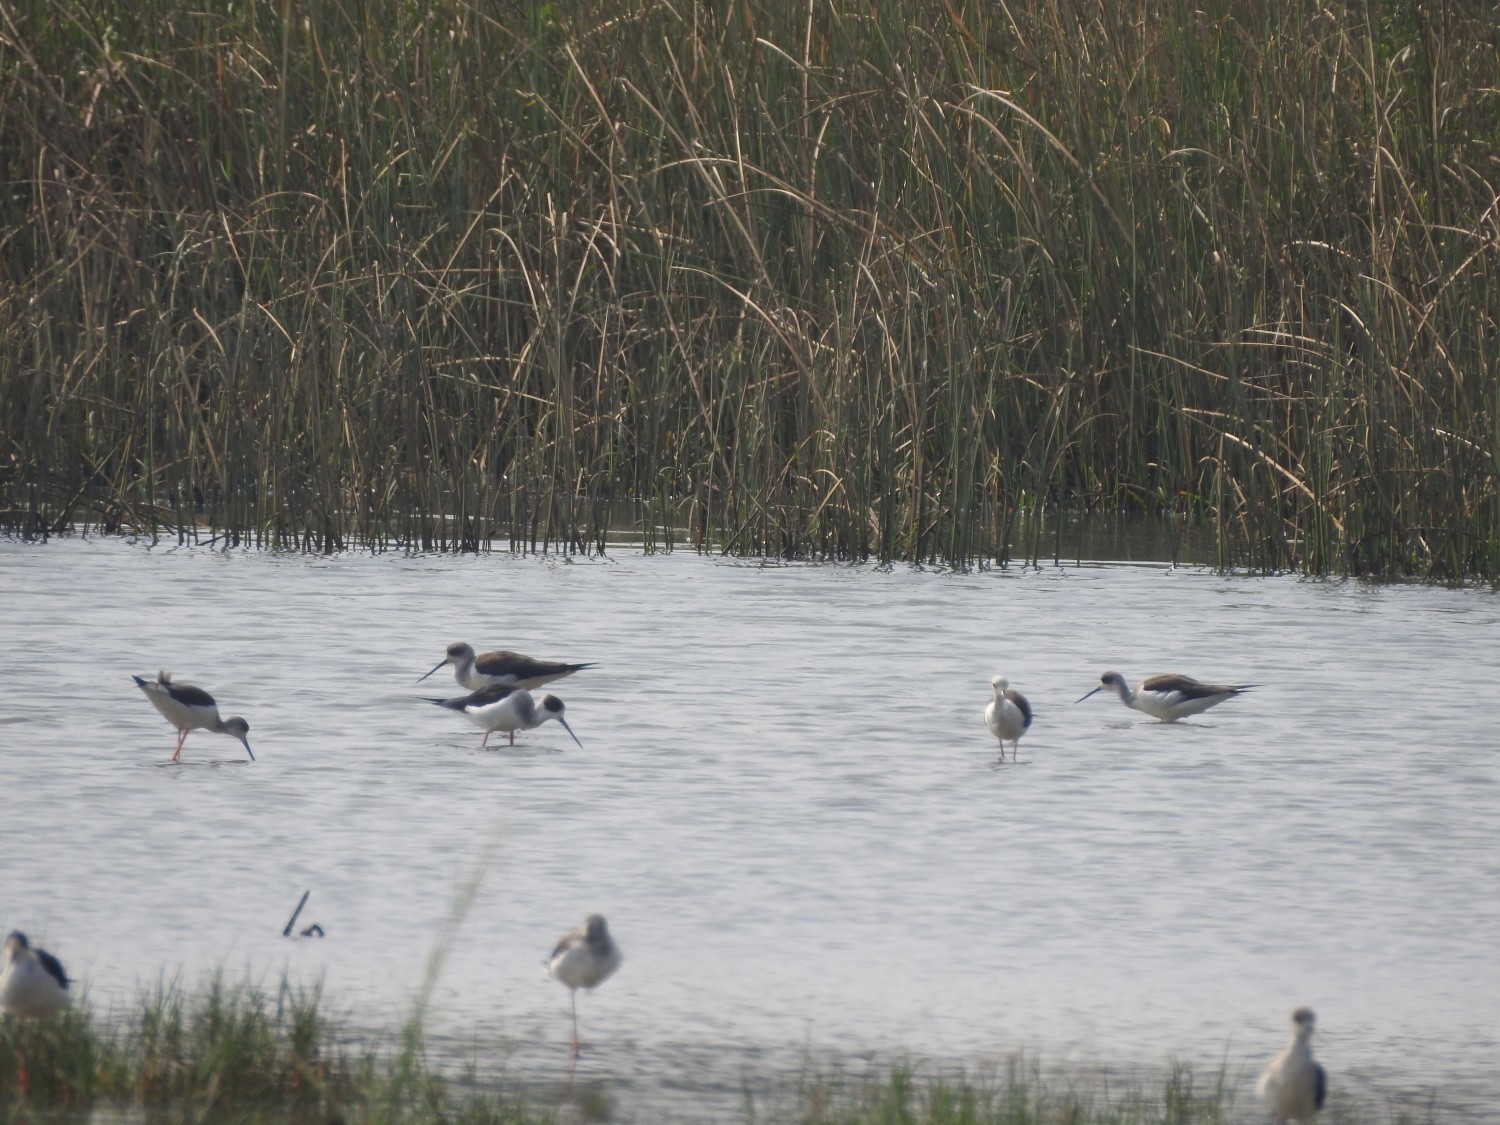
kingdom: Animalia
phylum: Chordata
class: Aves
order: Charadriiformes
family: Recurvirostridae
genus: Himantopus
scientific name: Himantopus himantopus
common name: Black-winged stilt
